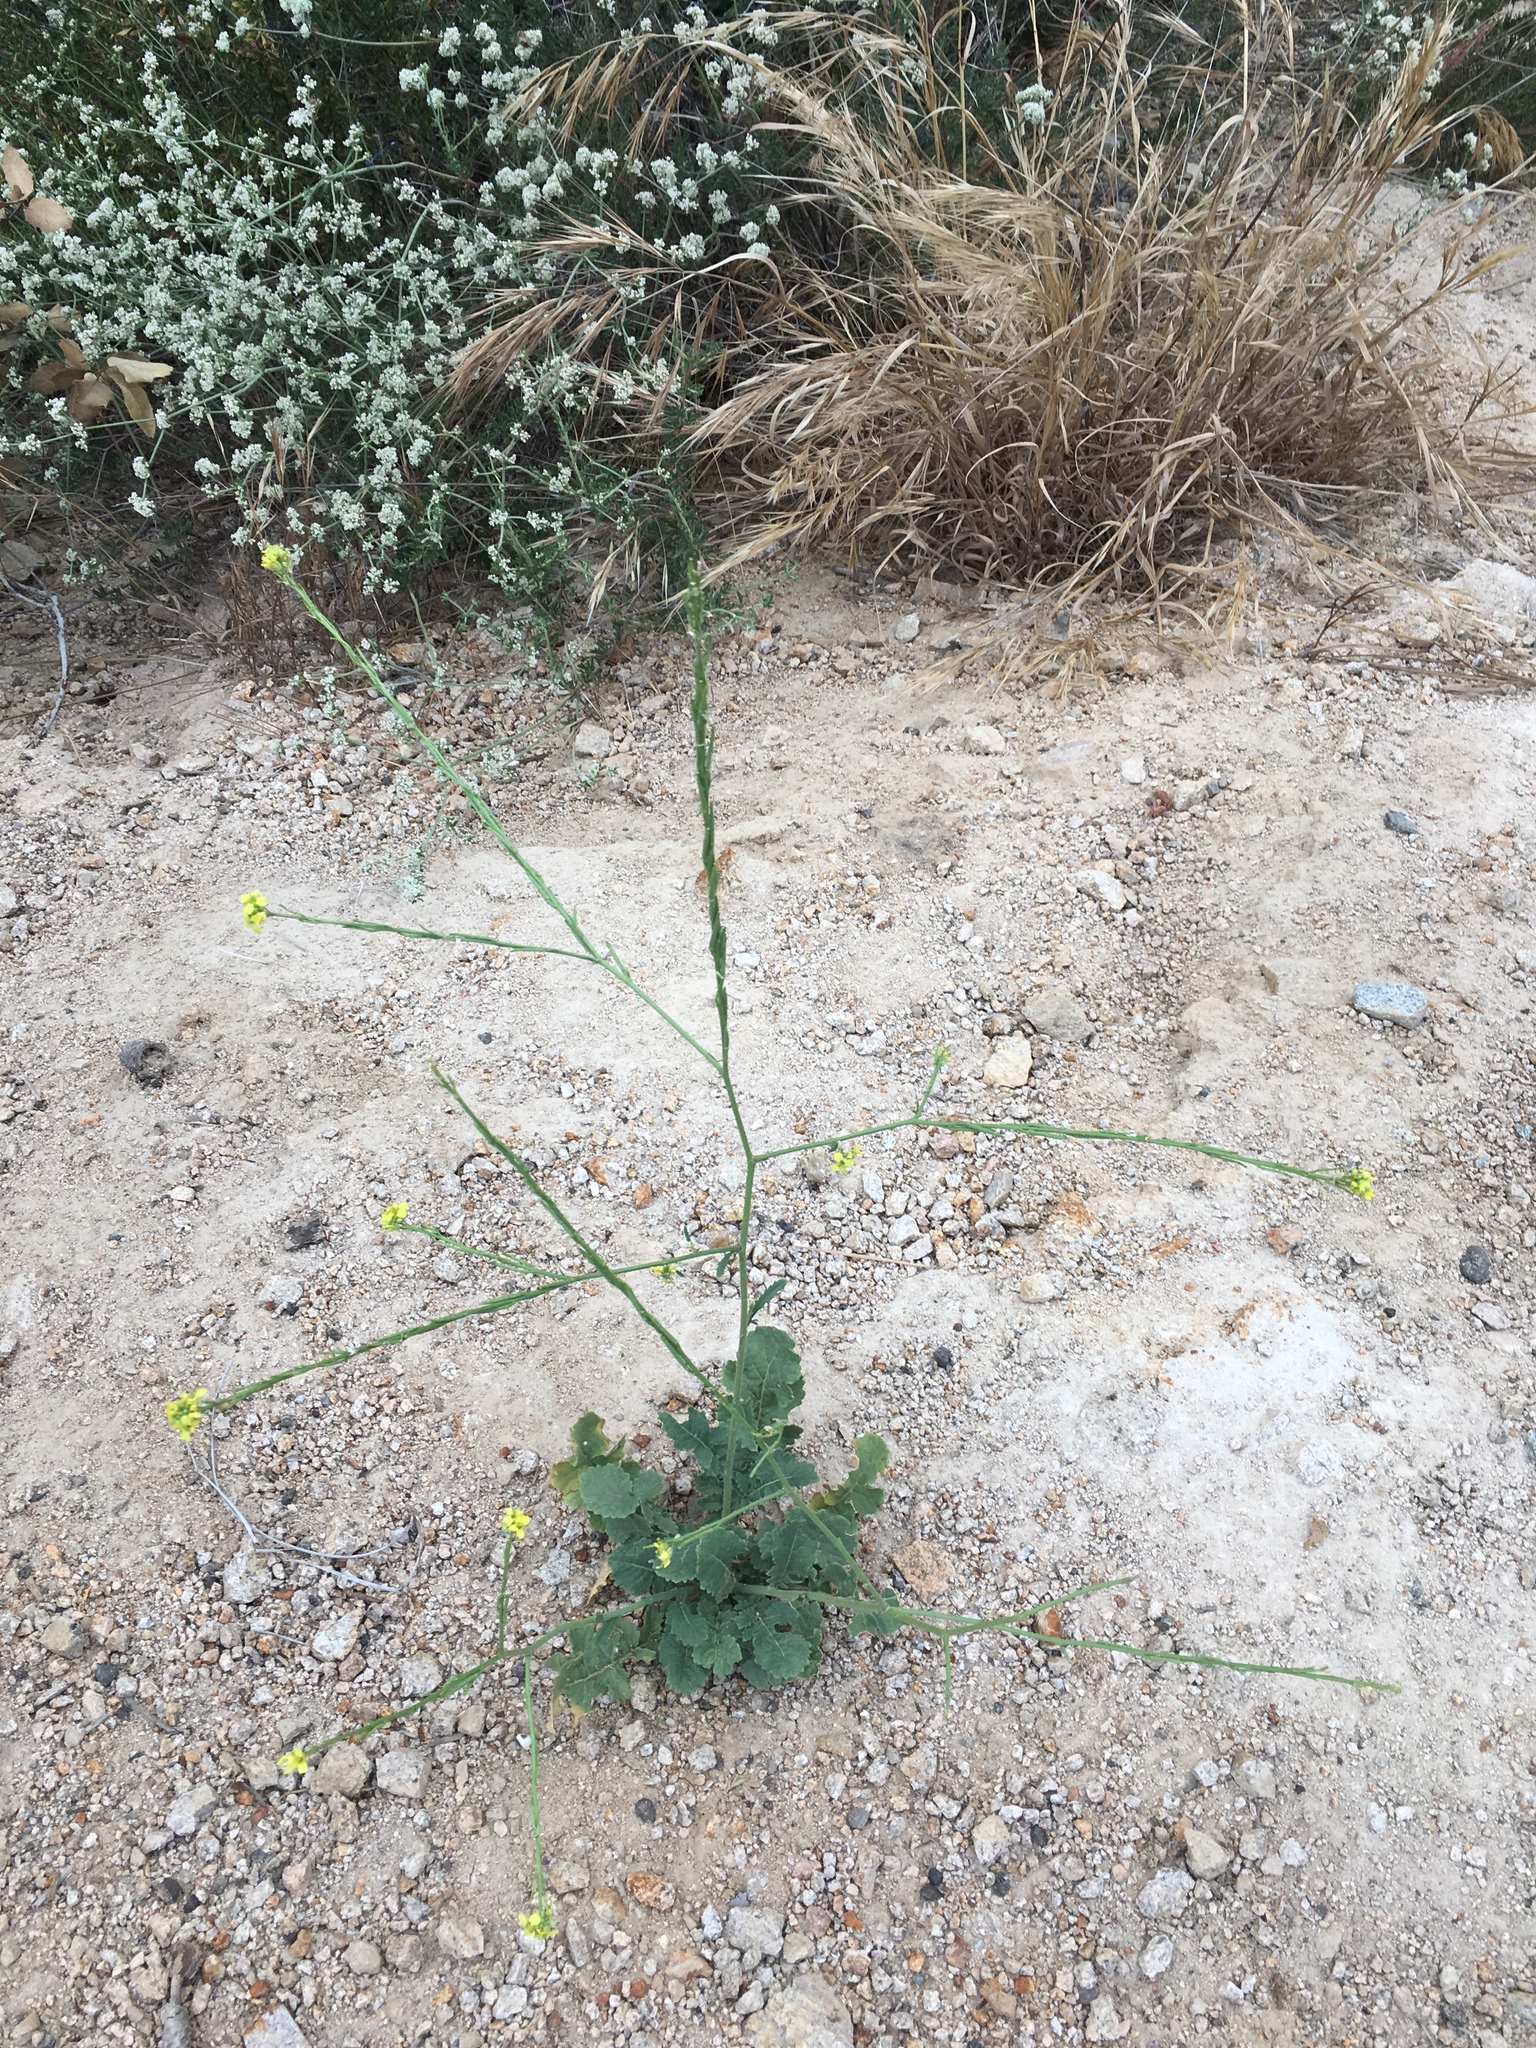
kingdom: Plantae
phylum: Tracheophyta
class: Magnoliopsida
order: Brassicales
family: Brassicaceae
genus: Hirschfeldia
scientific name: Hirschfeldia incana
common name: Hoary mustard
